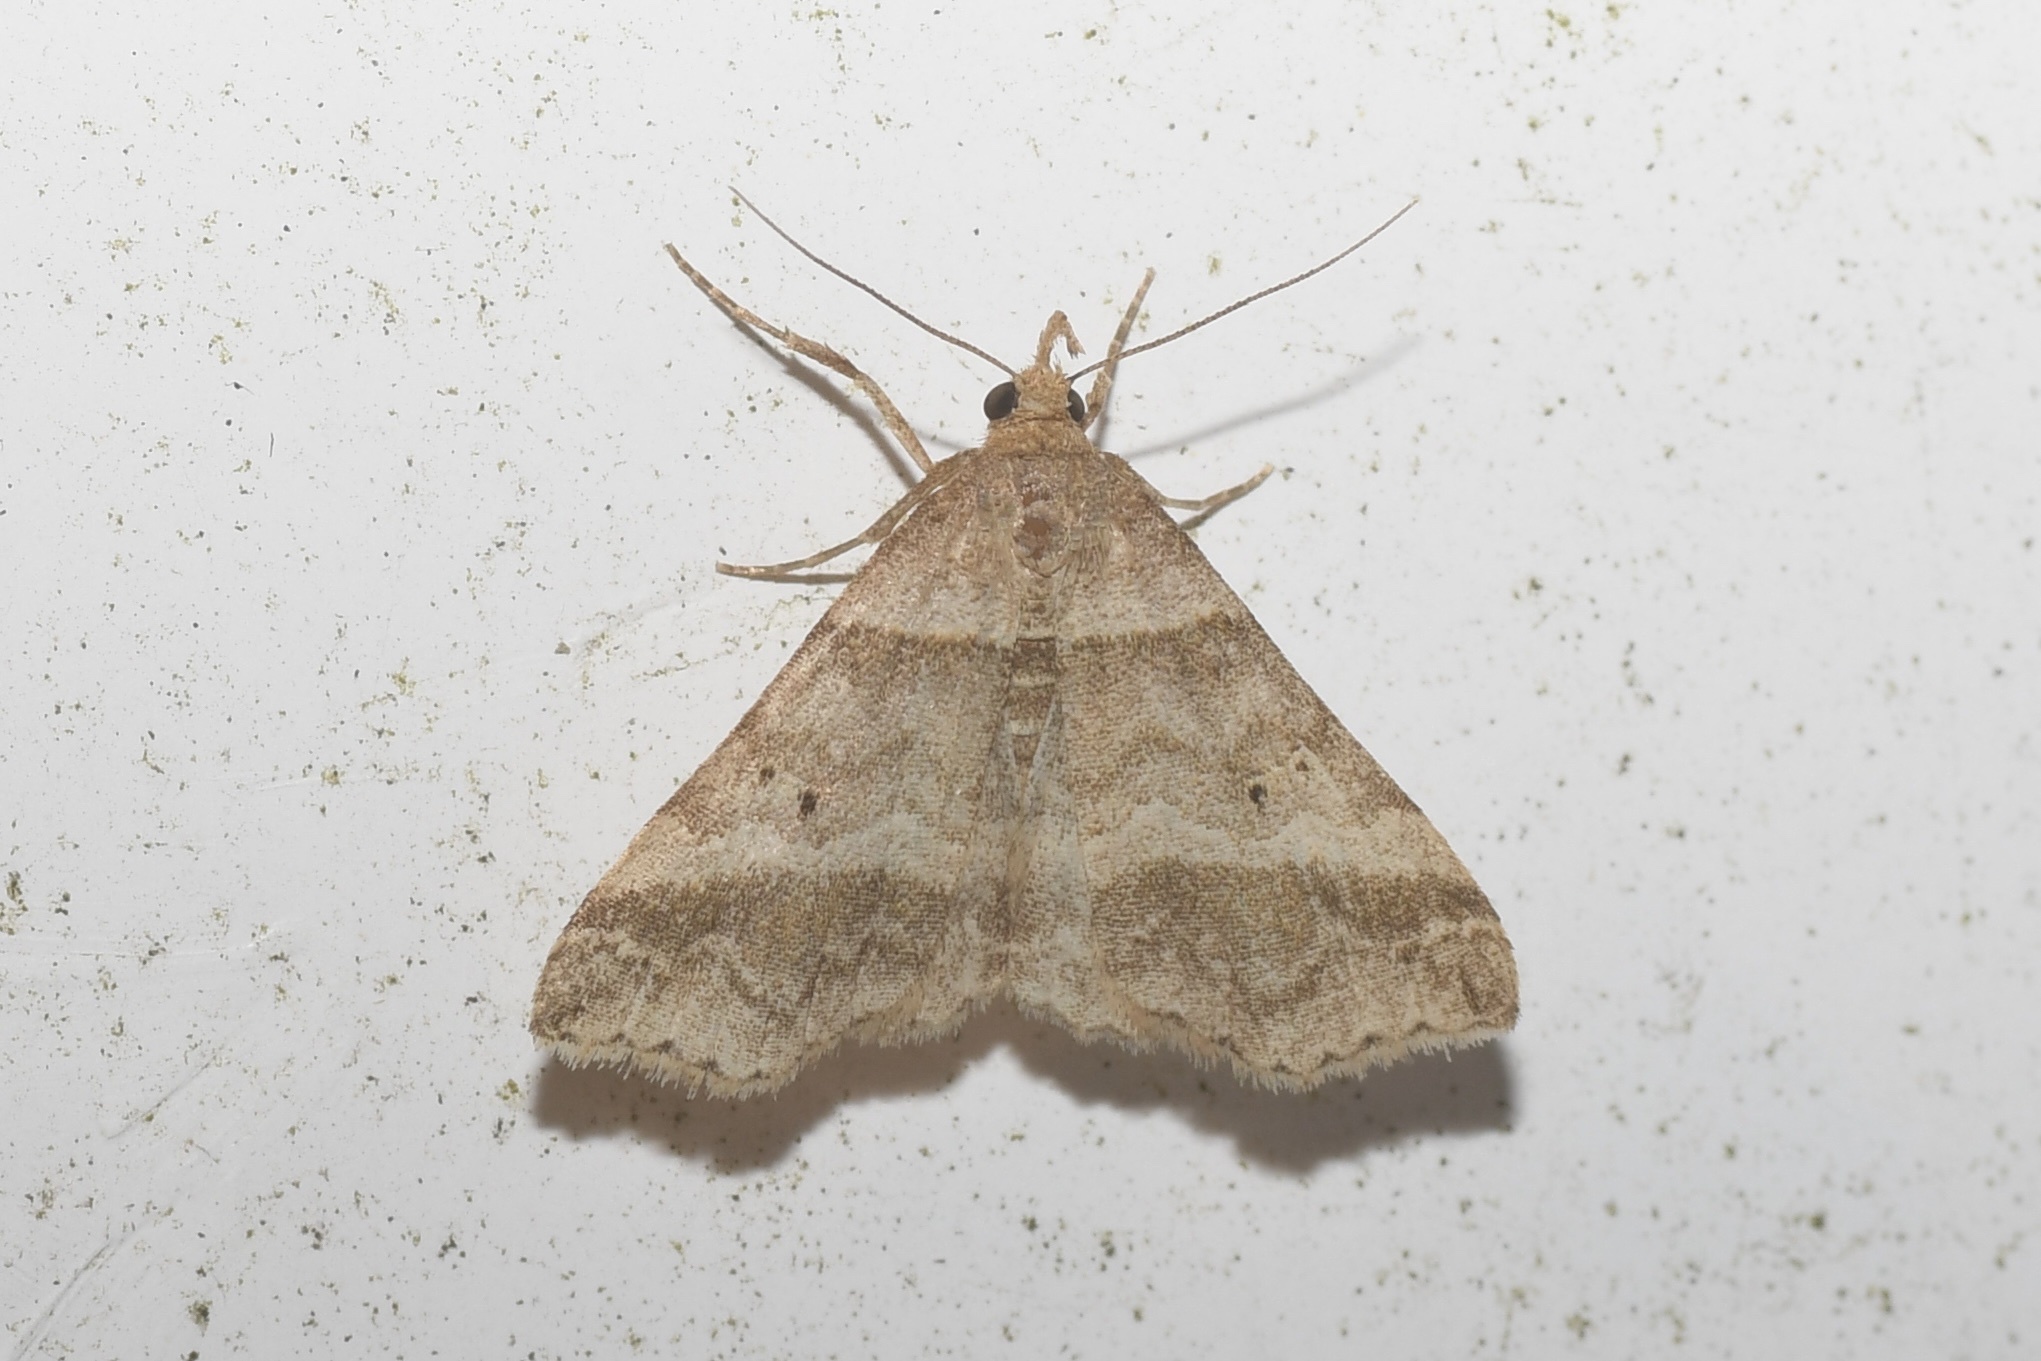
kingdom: Animalia
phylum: Arthropoda
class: Insecta
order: Lepidoptera
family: Erebidae
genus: Phaeolita
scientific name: Phaeolita pyramusalis
